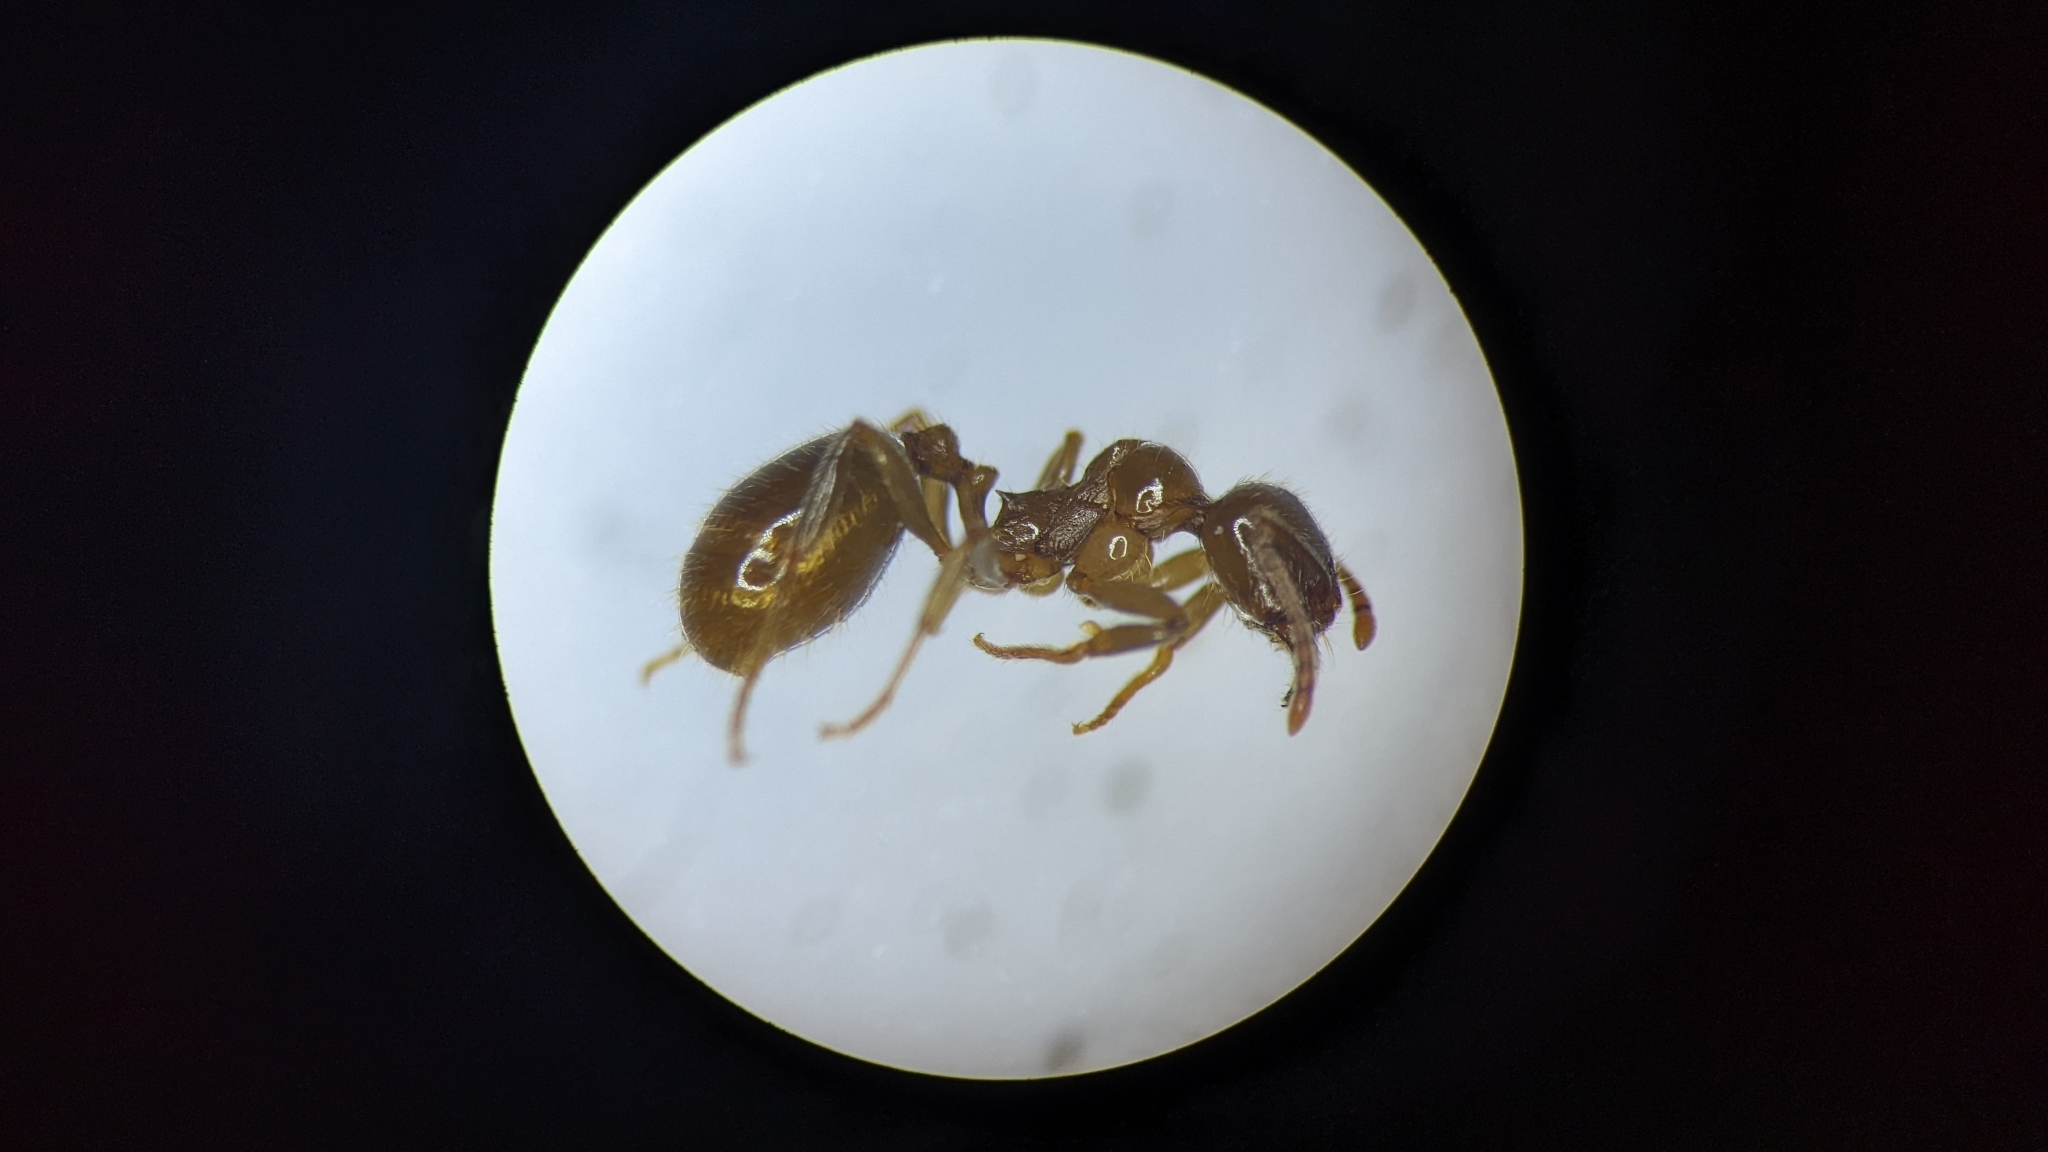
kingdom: Animalia
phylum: Arthropoda
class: Insecta
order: Hymenoptera
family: Formicidae
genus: Aphaenogaster
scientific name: Aphaenogaster dulcineae
